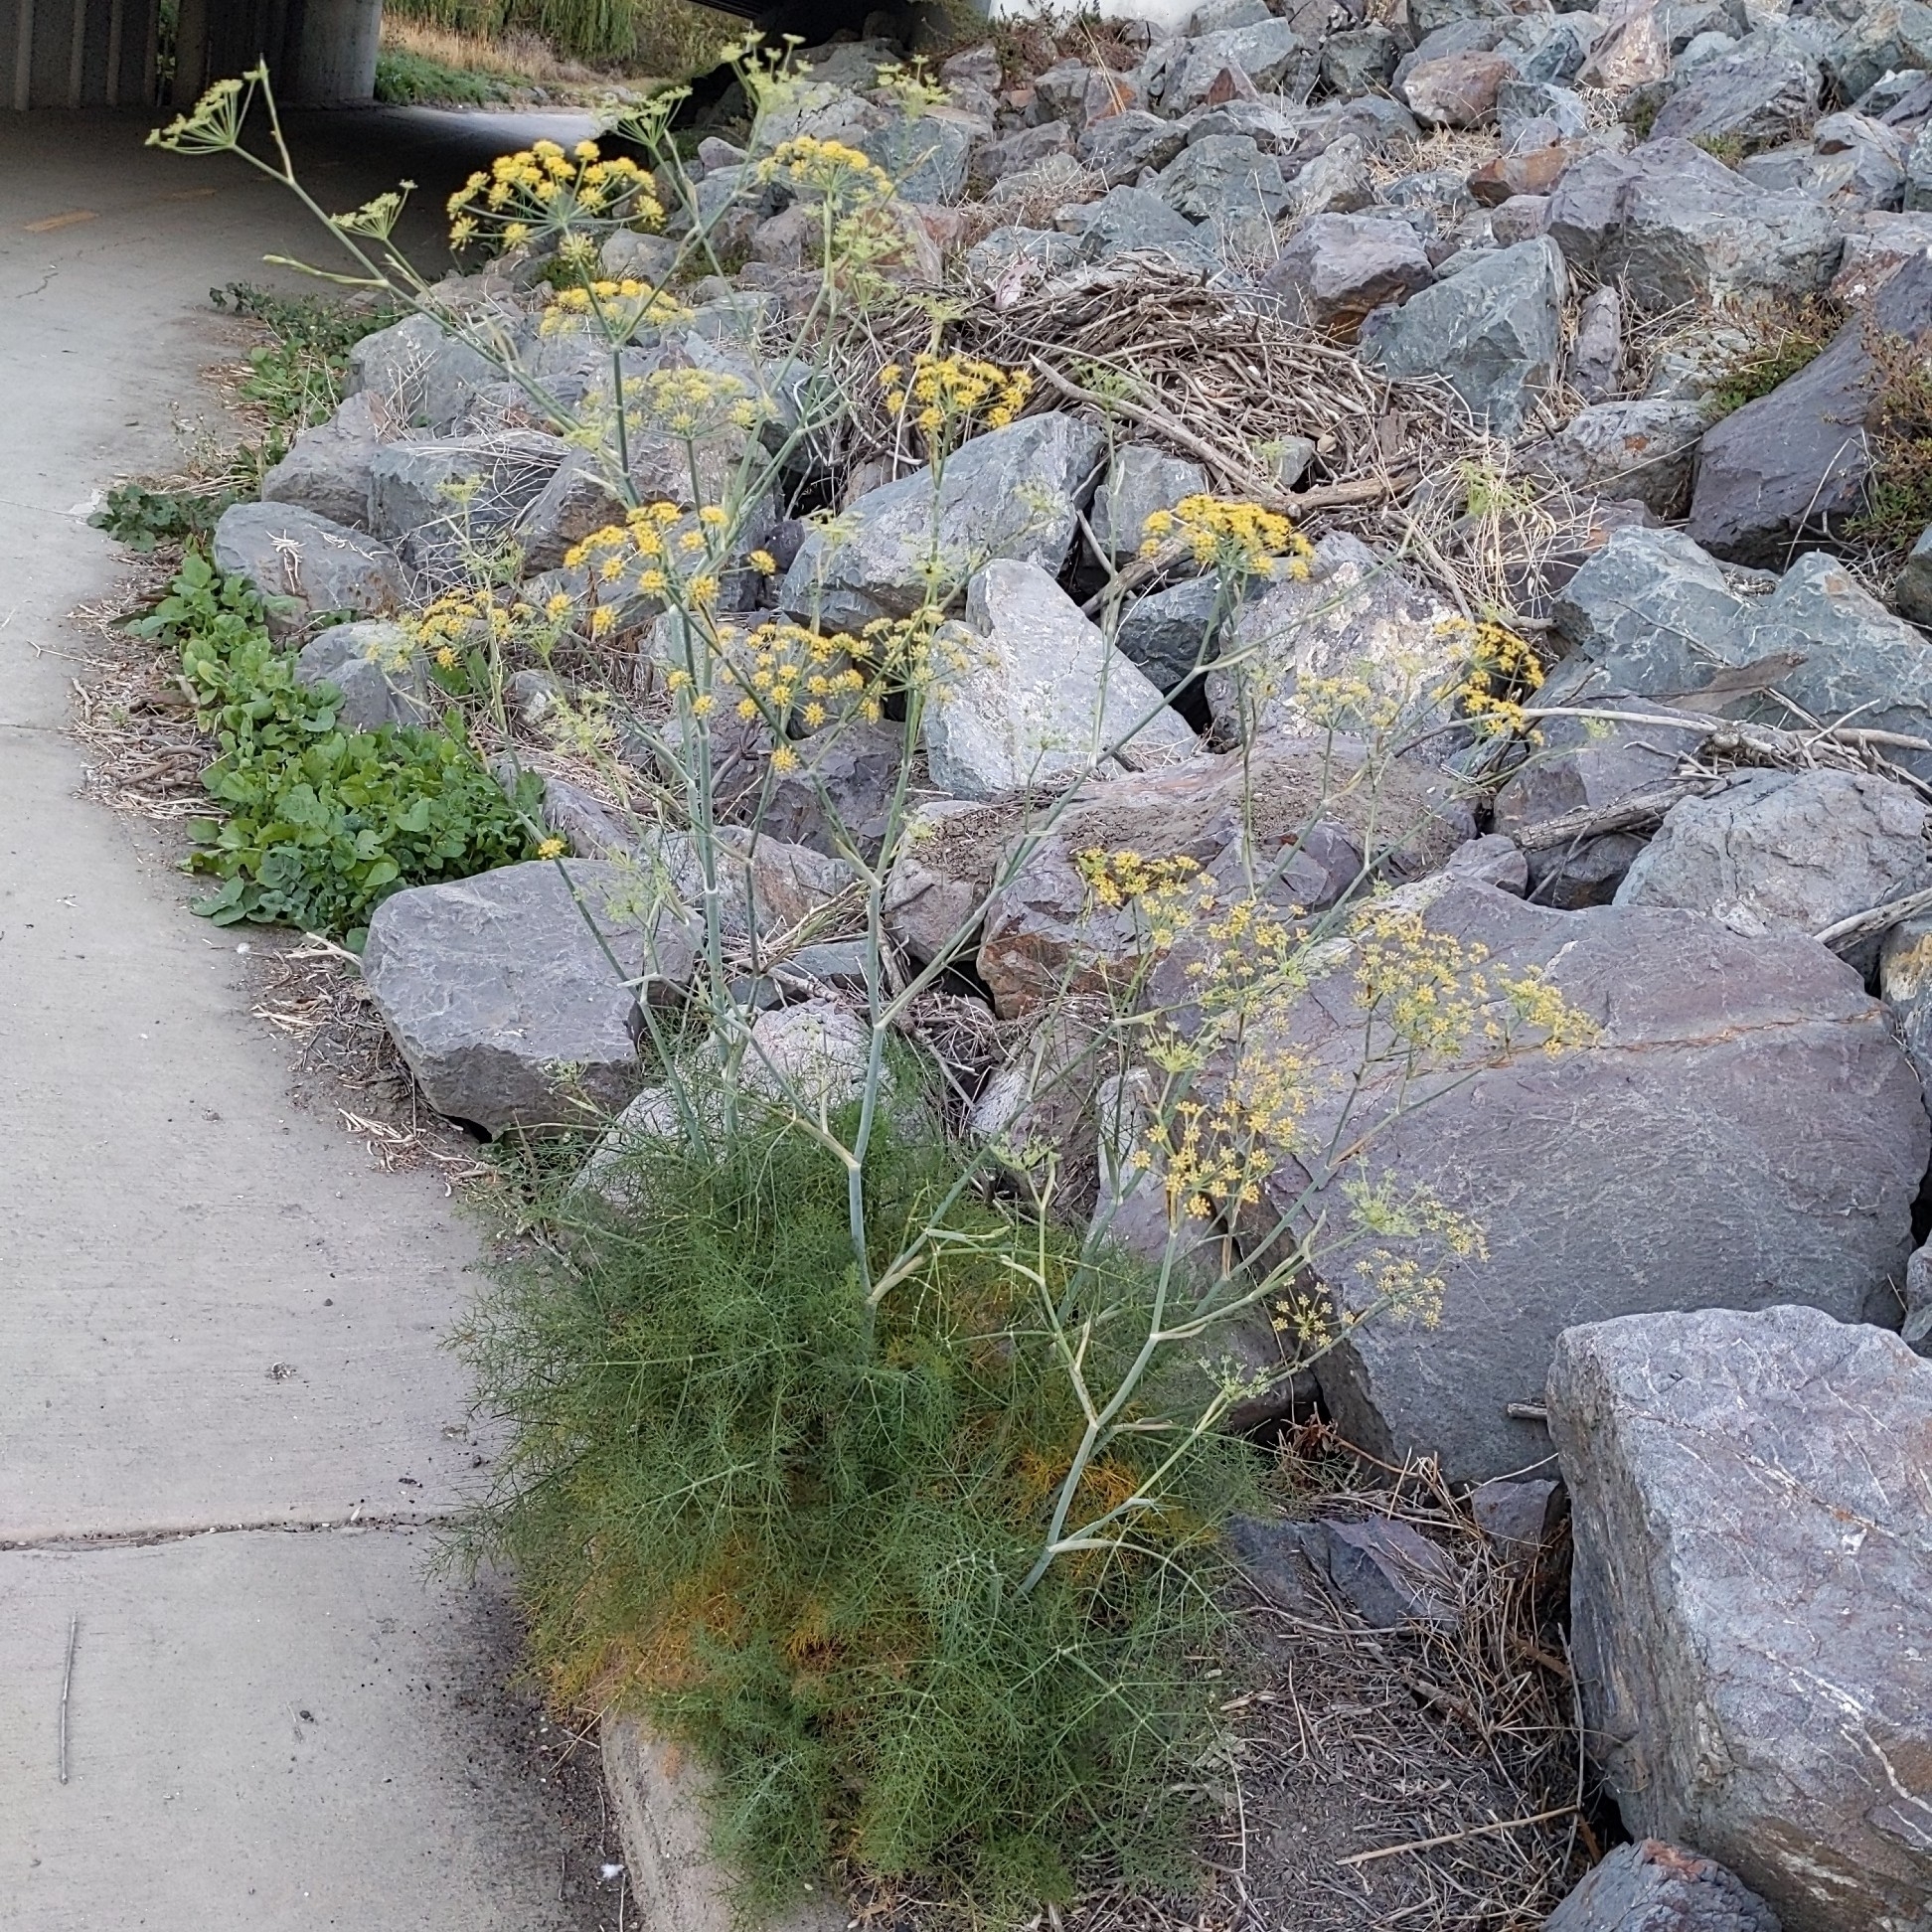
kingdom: Plantae
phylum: Tracheophyta
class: Magnoliopsida
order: Apiales
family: Apiaceae
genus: Foeniculum
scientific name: Foeniculum vulgare
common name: Fennel
